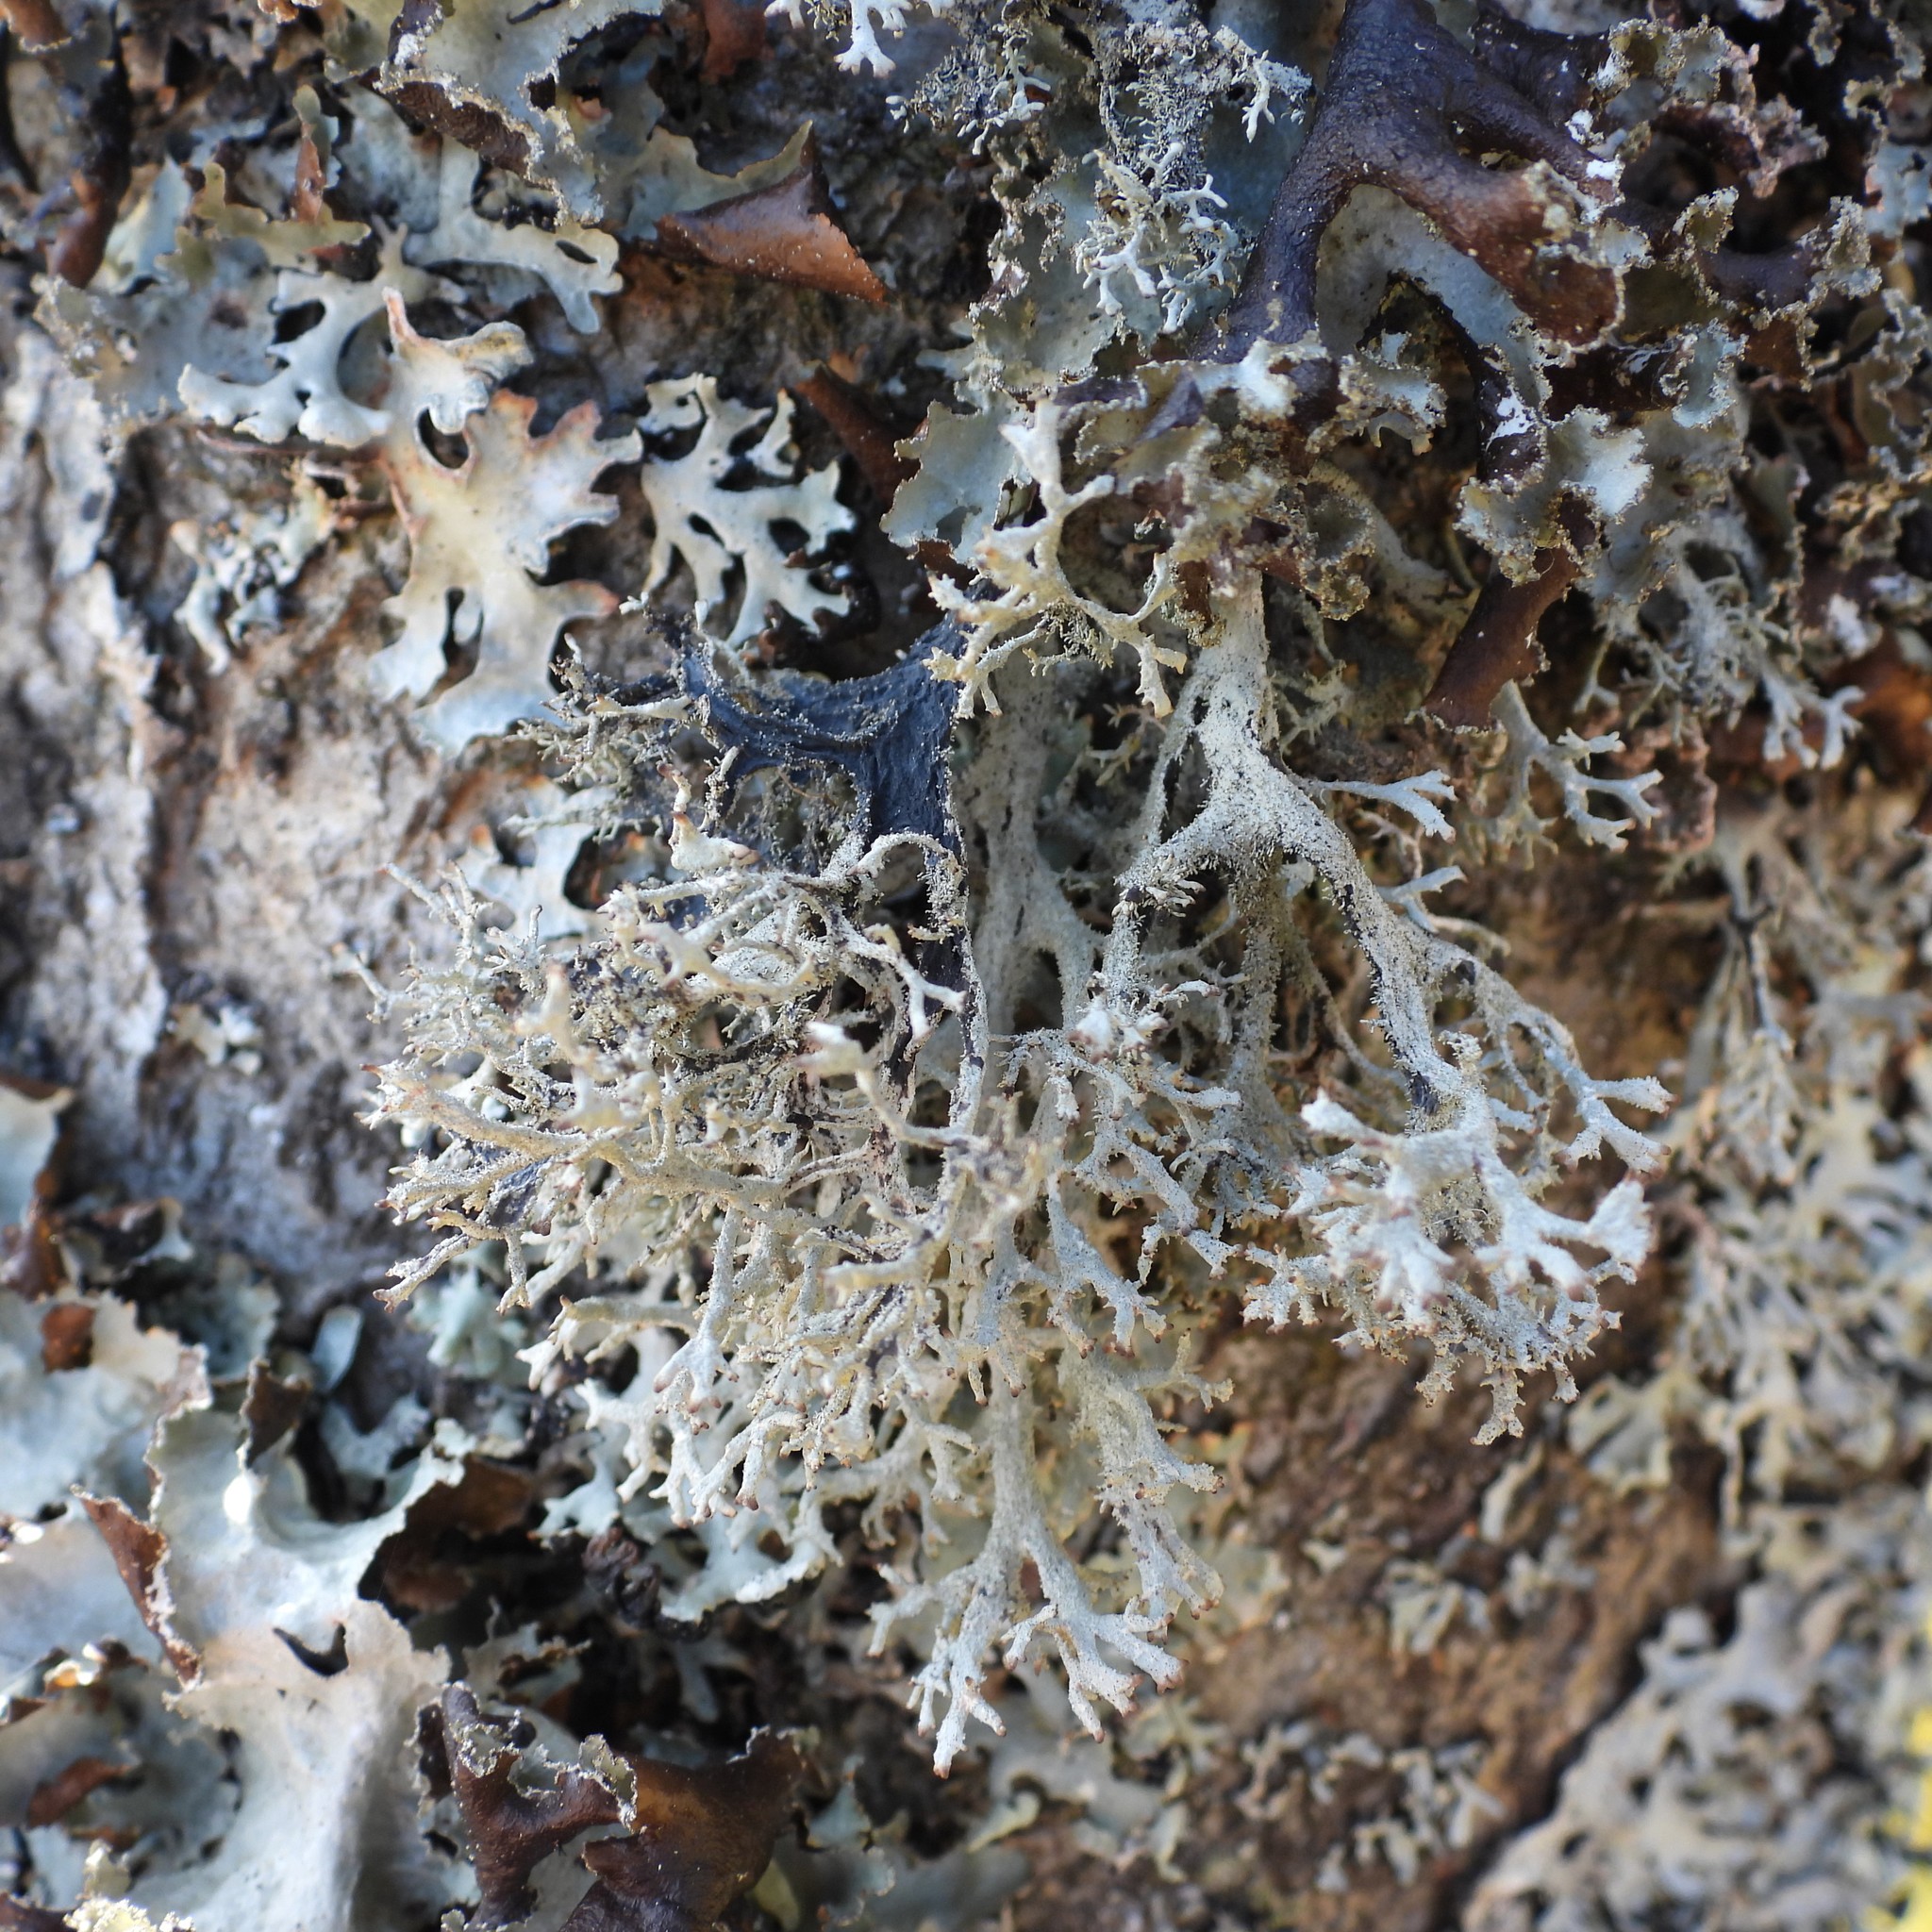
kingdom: Fungi
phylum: Ascomycota
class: Lecanoromycetes
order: Lecanorales
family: Parmeliaceae
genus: Pseudevernia
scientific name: Pseudevernia furfuracea
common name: Tree moss
